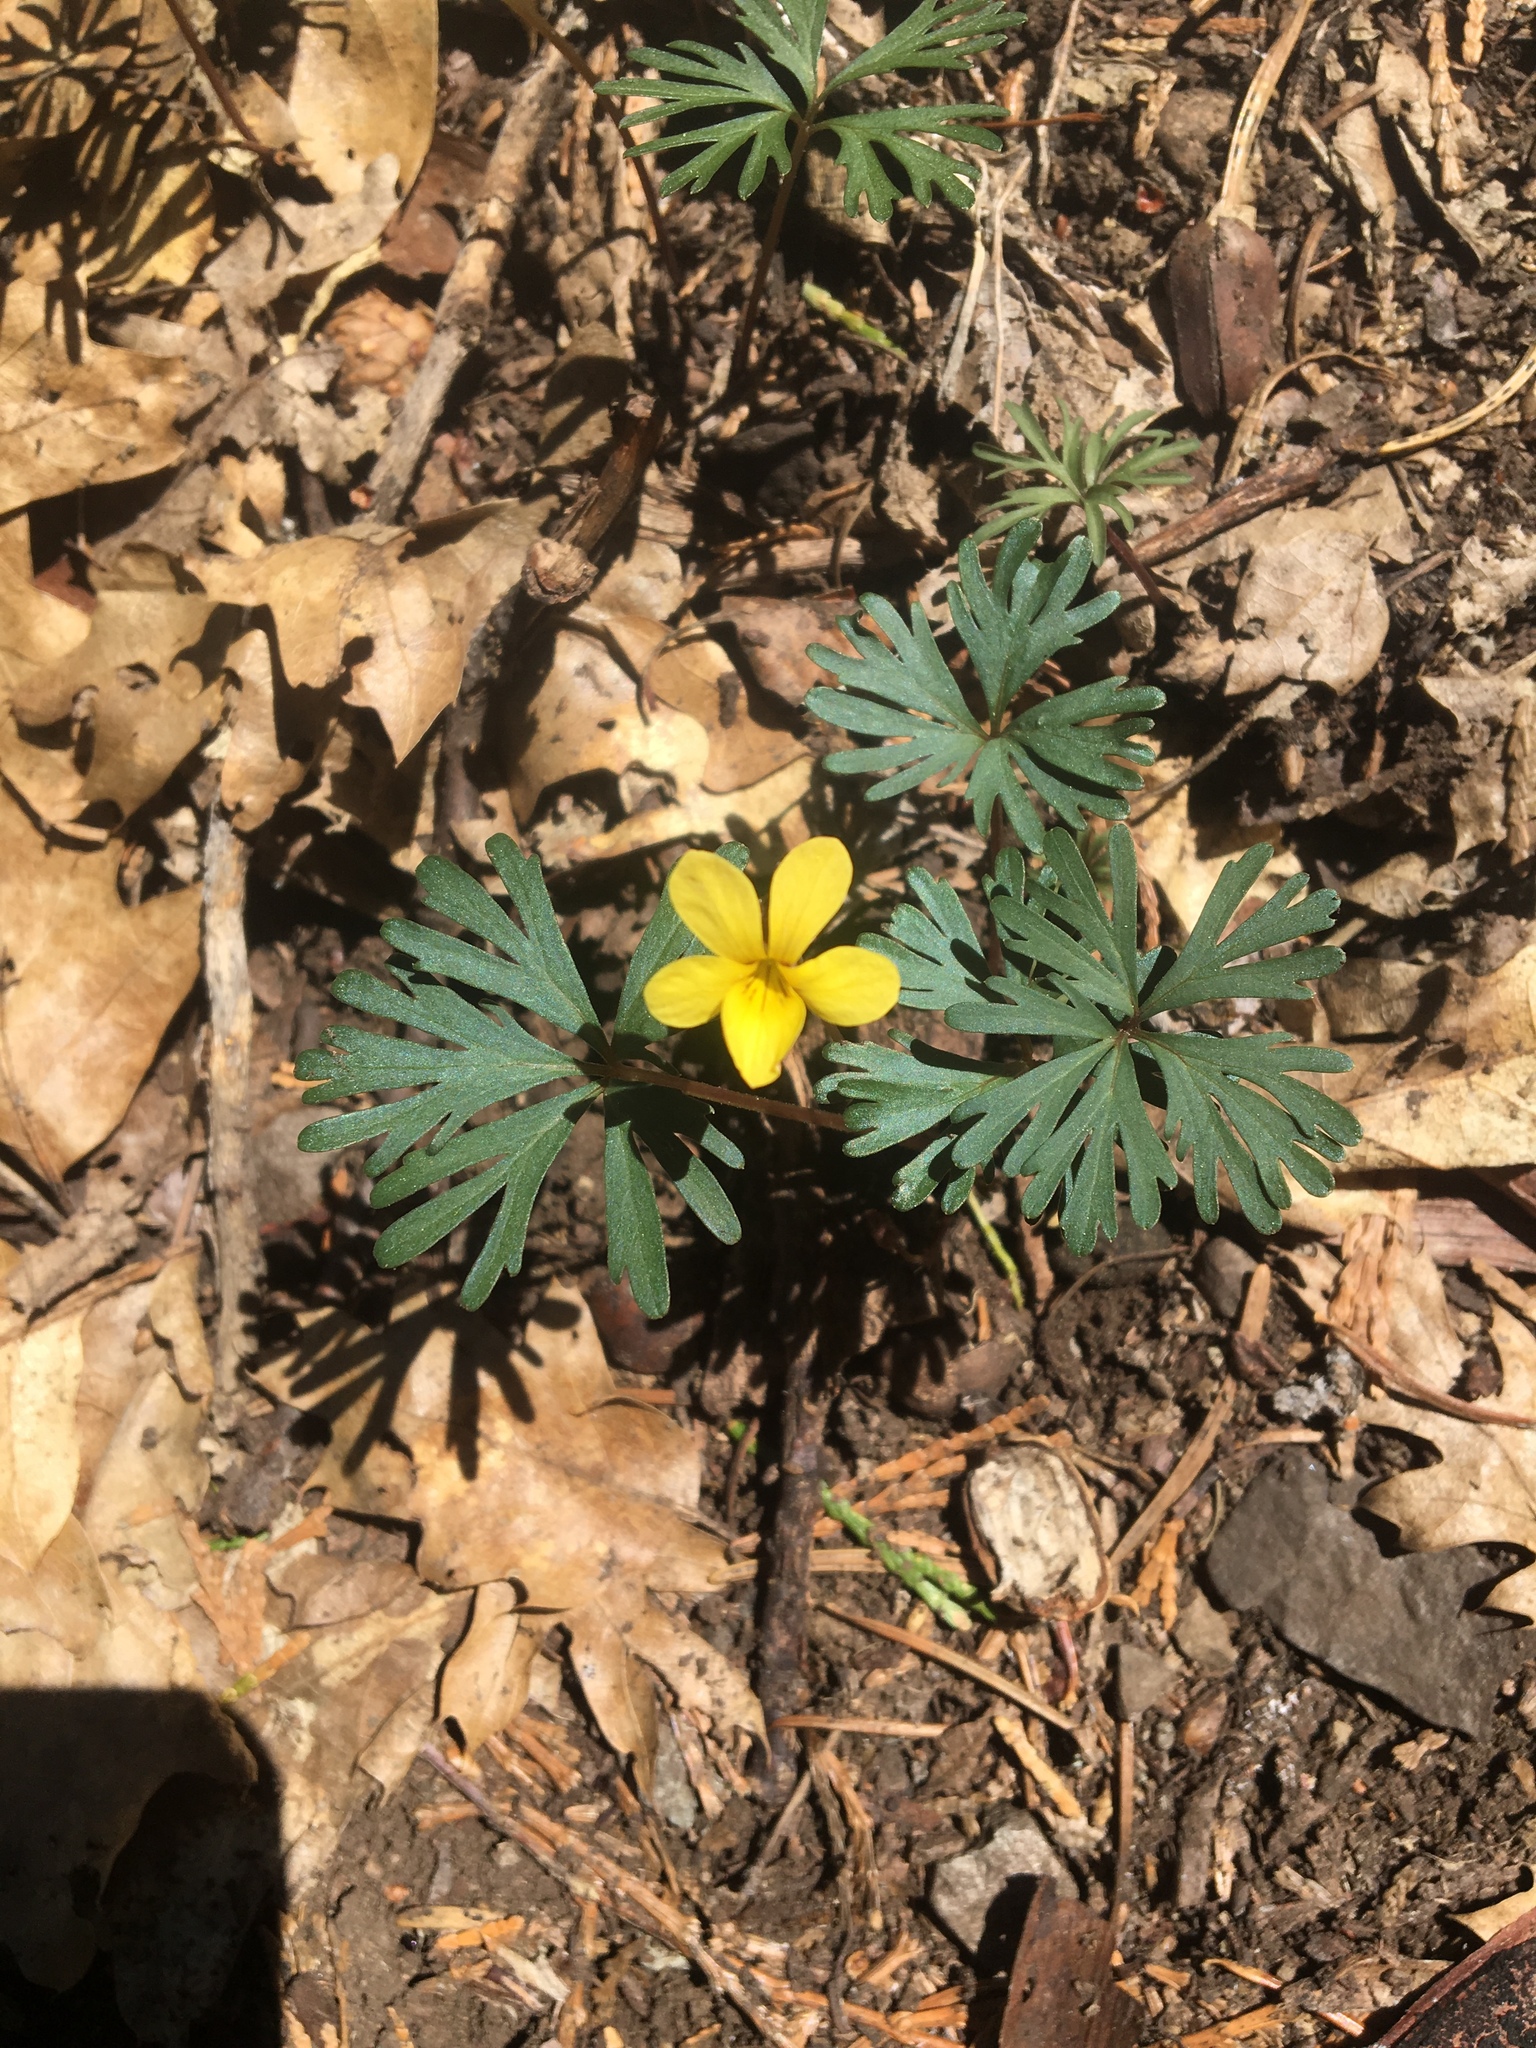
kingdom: Plantae
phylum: Tracheophyta
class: Magnoliopsida
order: Malpighiales
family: Violaceae
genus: Viola
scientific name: Viola sheltonii
